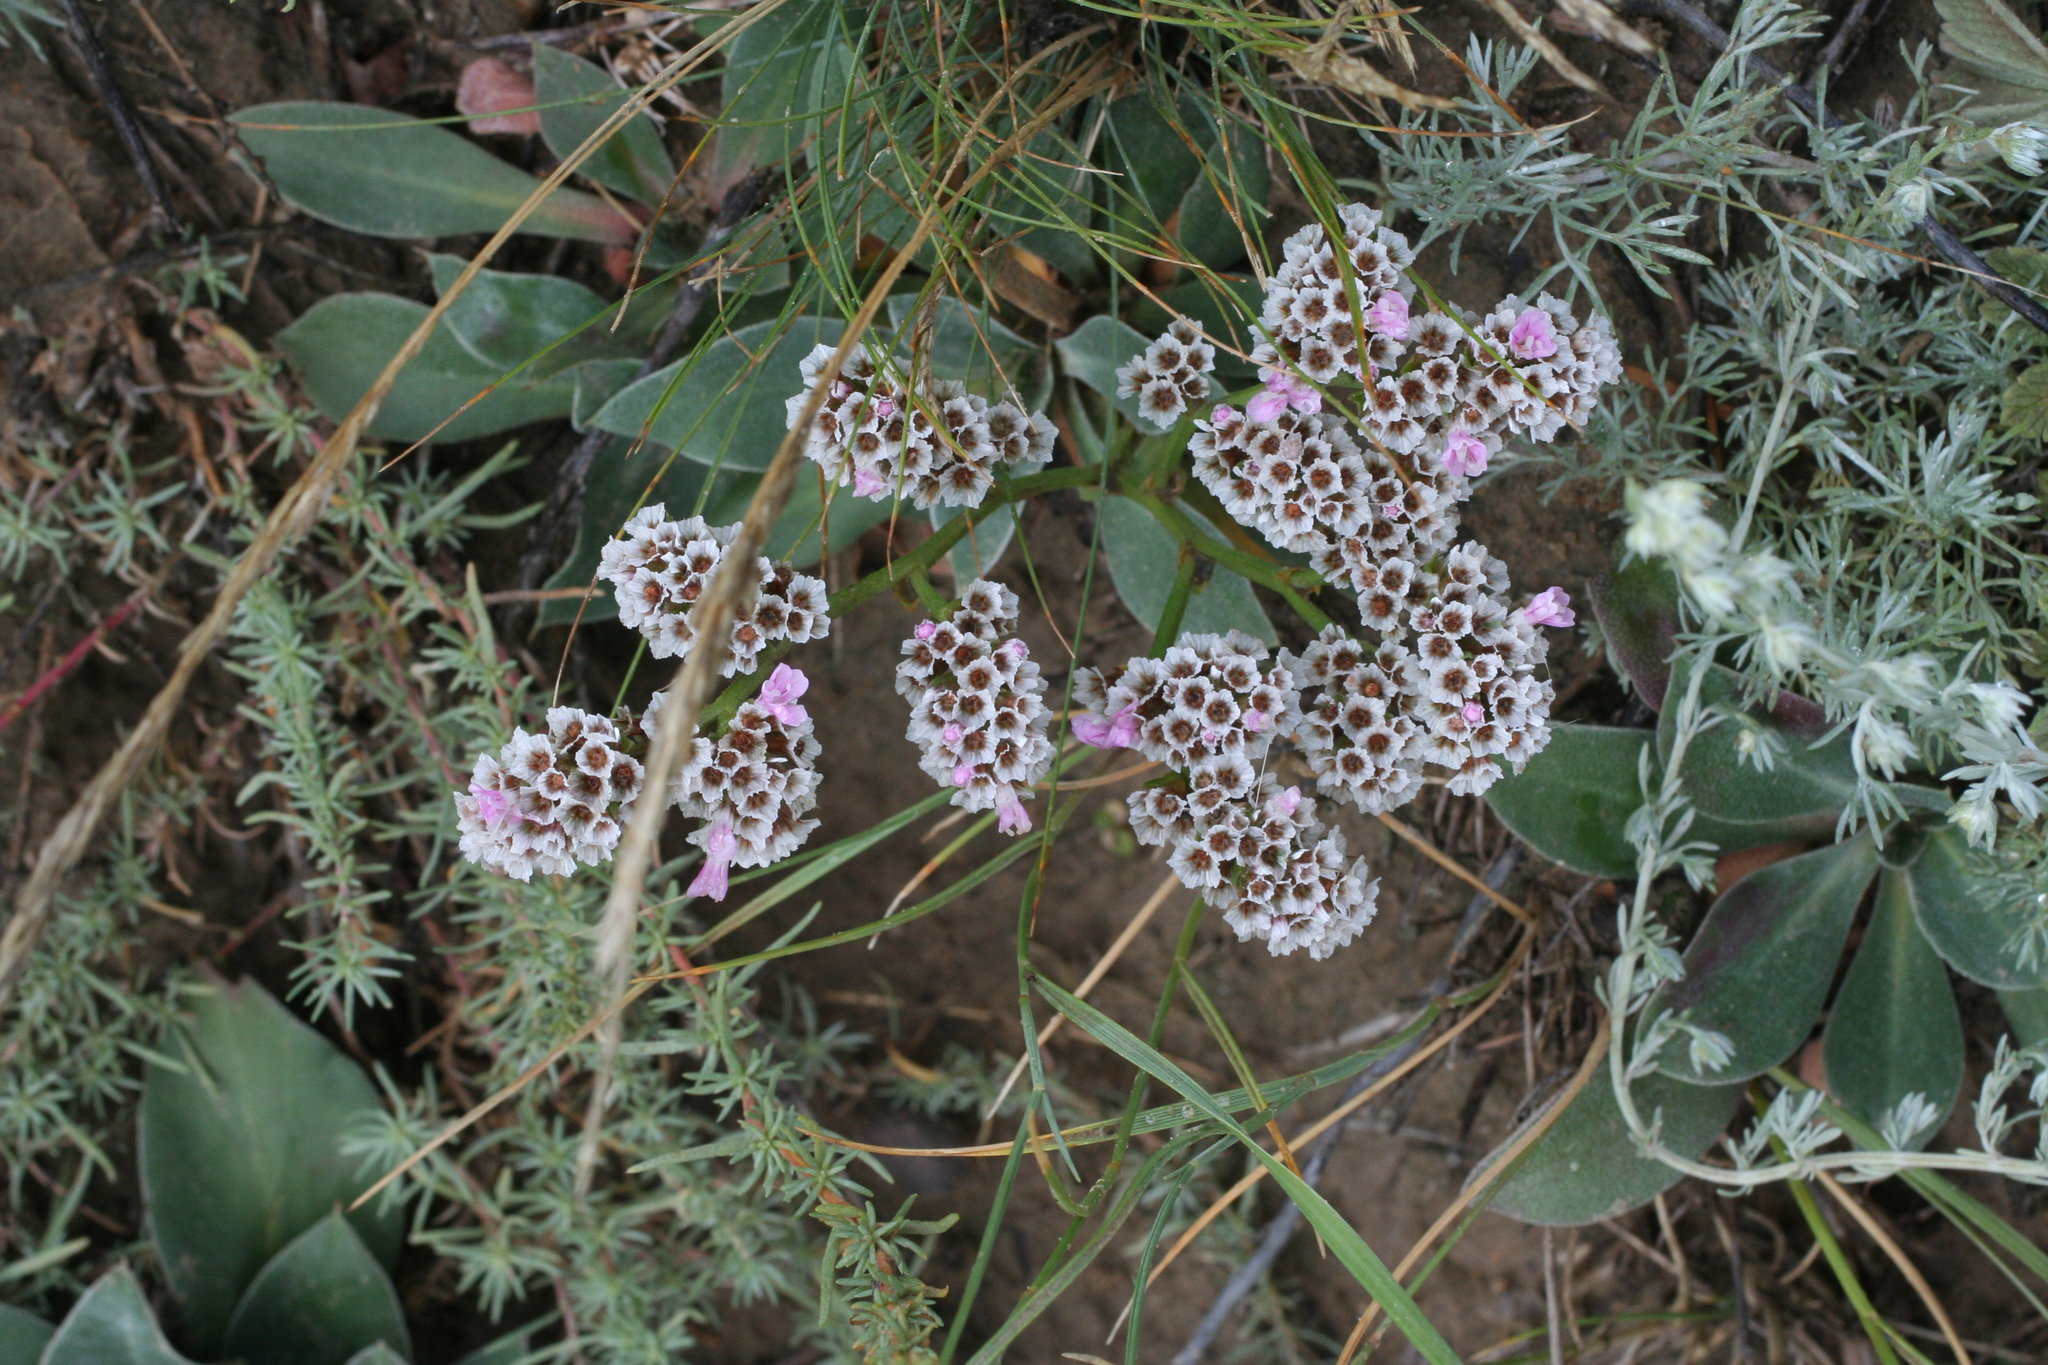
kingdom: Plantae
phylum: Tracheophyta
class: Magnoliopsida
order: Caryophyllales
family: Plumbaginaceae
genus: Goniolimon
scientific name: Goniolimon speciosum
